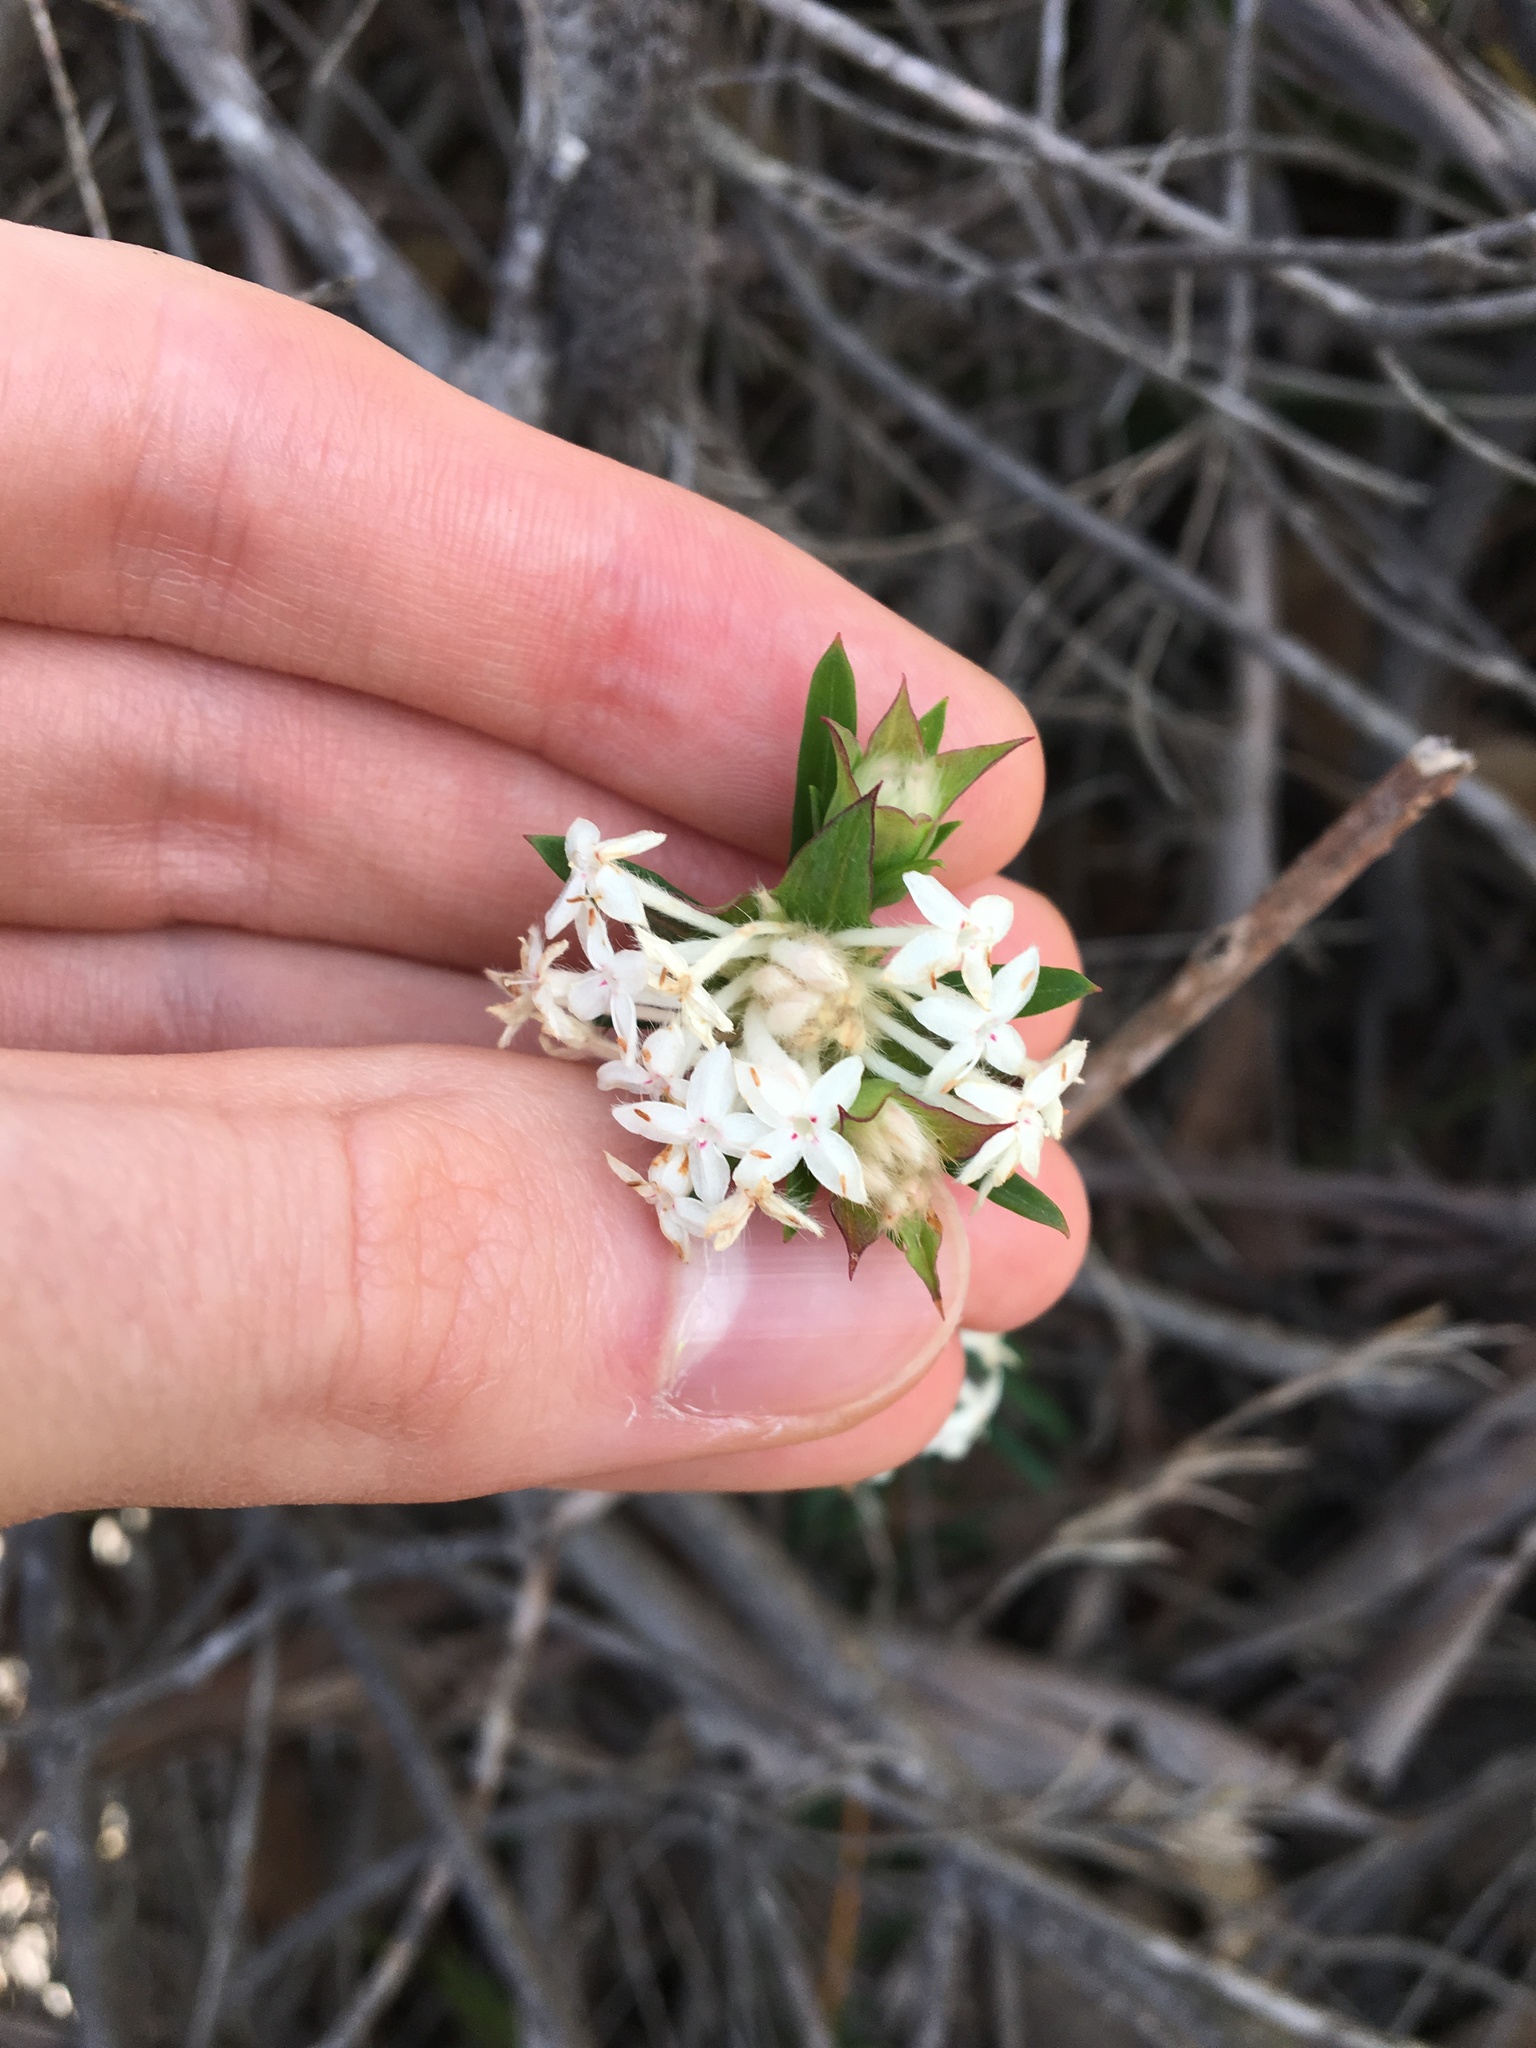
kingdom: Plantae
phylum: Tracheophyta
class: Magnoliopsida
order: Malvales
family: Thymelaeaceae
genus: Pimelea
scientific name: Pimelea linifolia
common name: Queen-of-the-bush
